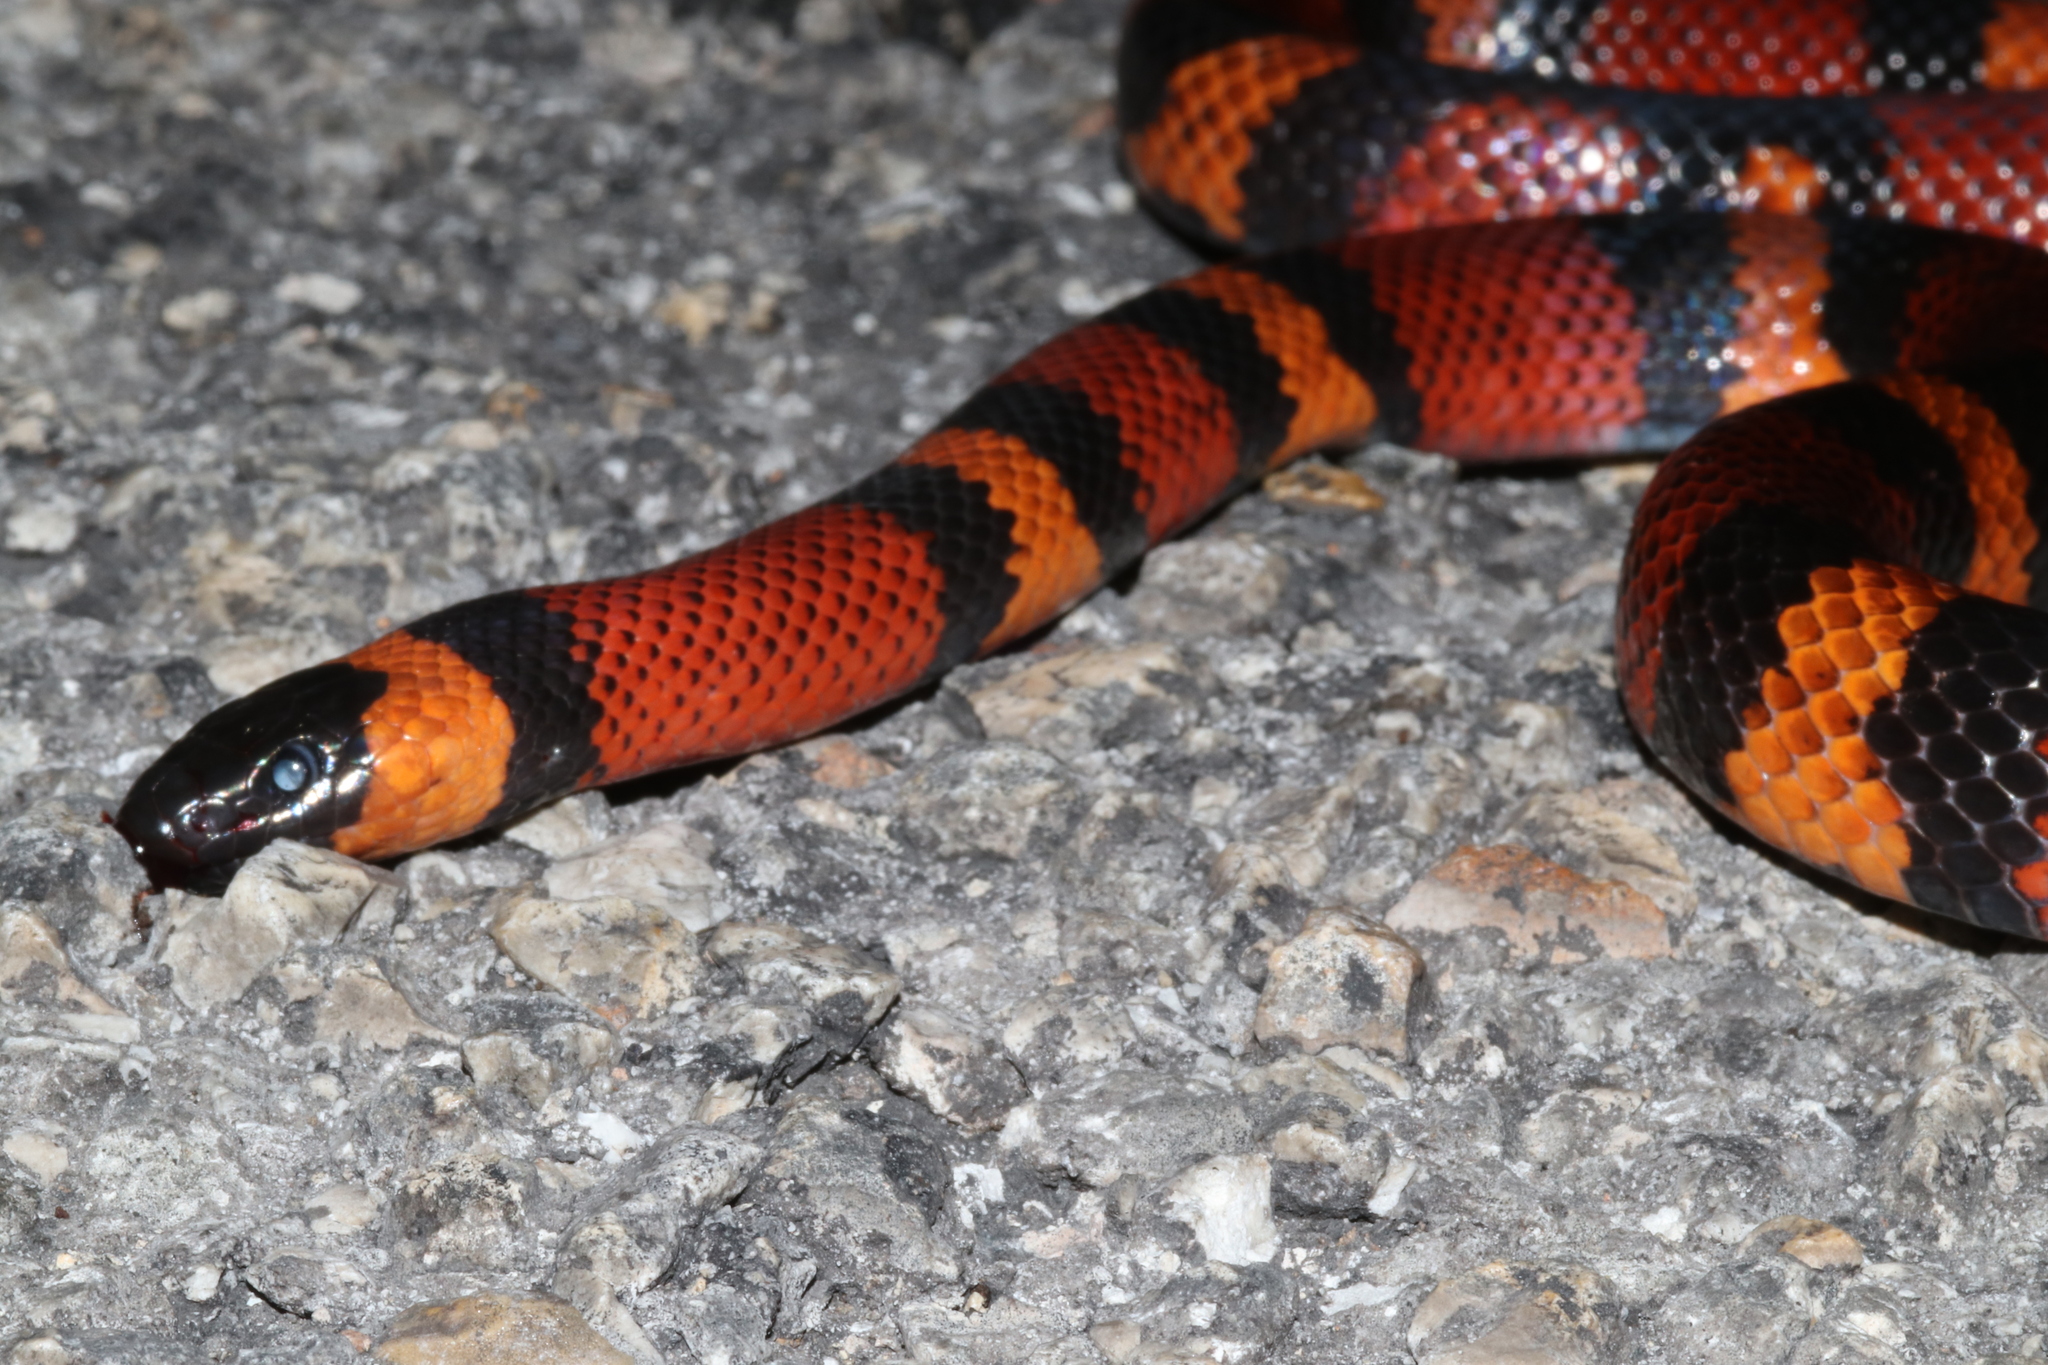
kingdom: Animalia
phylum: Chordata
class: Squamata
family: Colubridae
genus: Lampropeltis
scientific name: Lampropeltis abnorma
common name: Honduran milk snake
